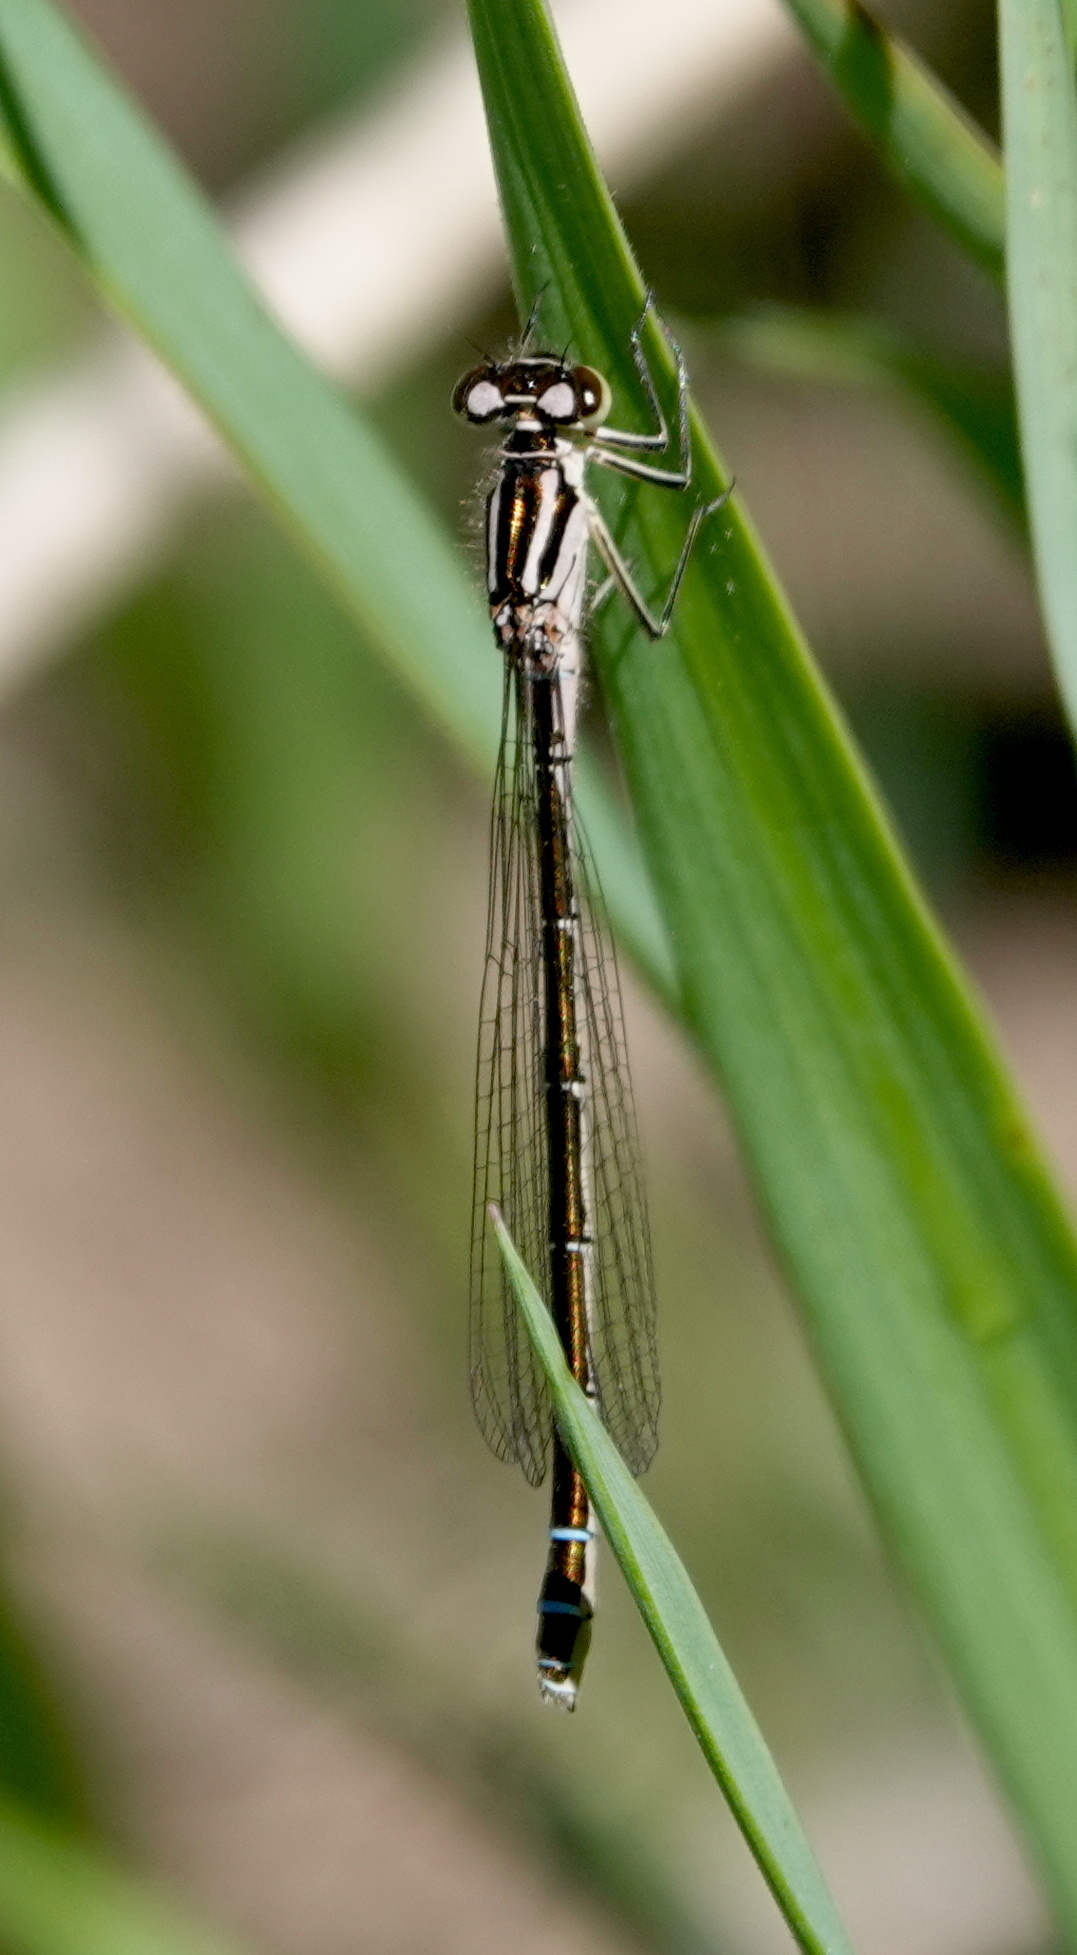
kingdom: Animalia
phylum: Arthropoda
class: Insecta
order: Odonata
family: Coenagrionidae
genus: Coenagrion
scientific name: Coenagrion resolutum
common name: Taiga bluet
